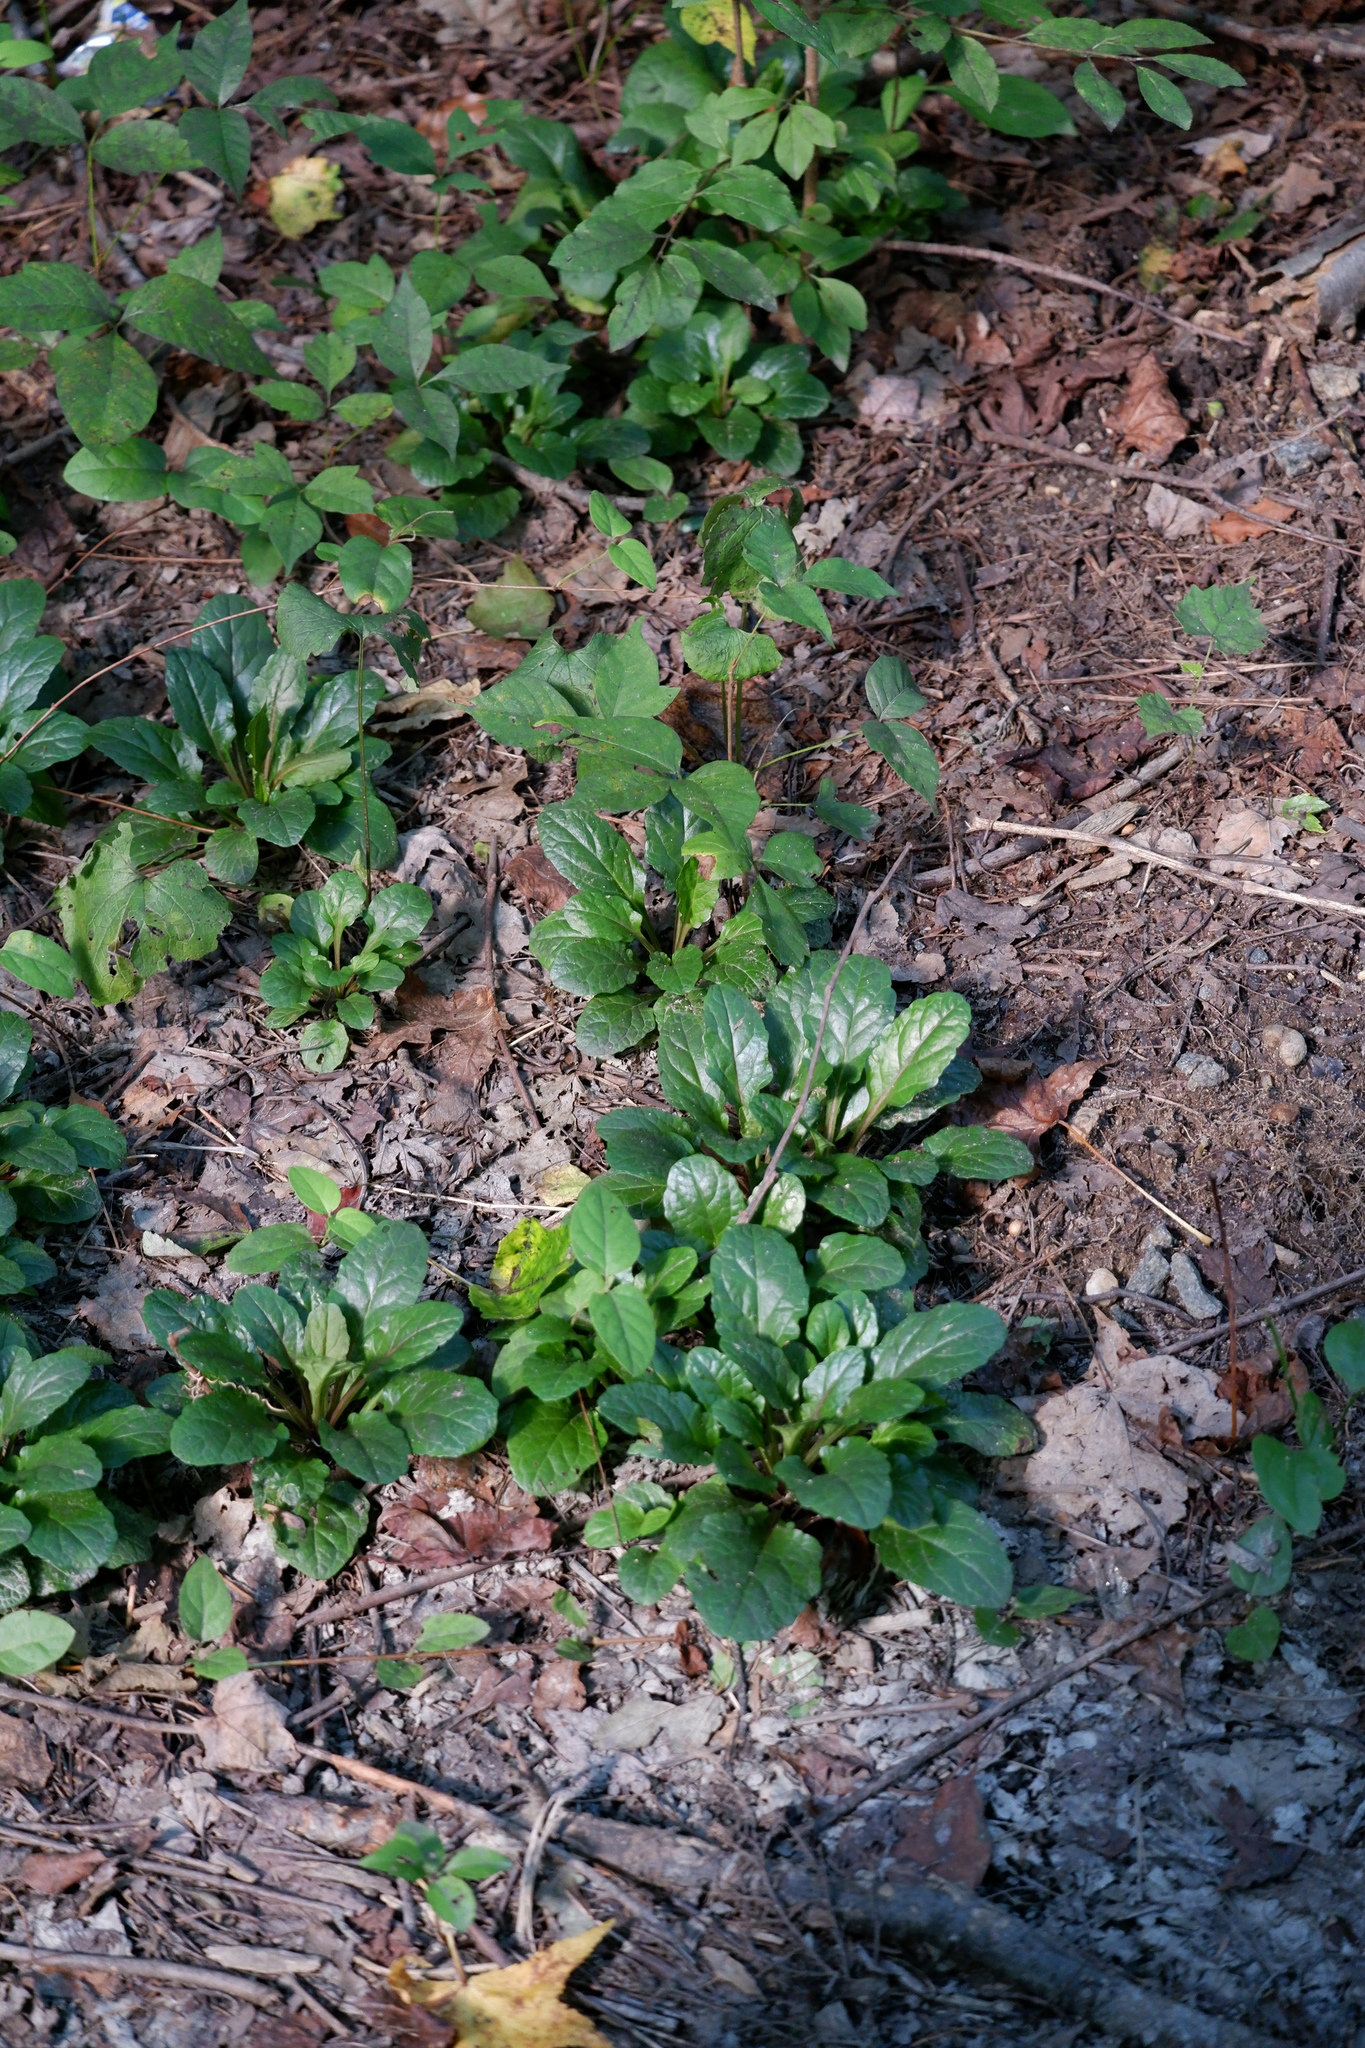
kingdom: Plantae
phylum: Tracheophyta
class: Magnoliopsida
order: Lamiales
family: Lamiaceae
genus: Ajuga
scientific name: Ajuga reptans
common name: Bugle
